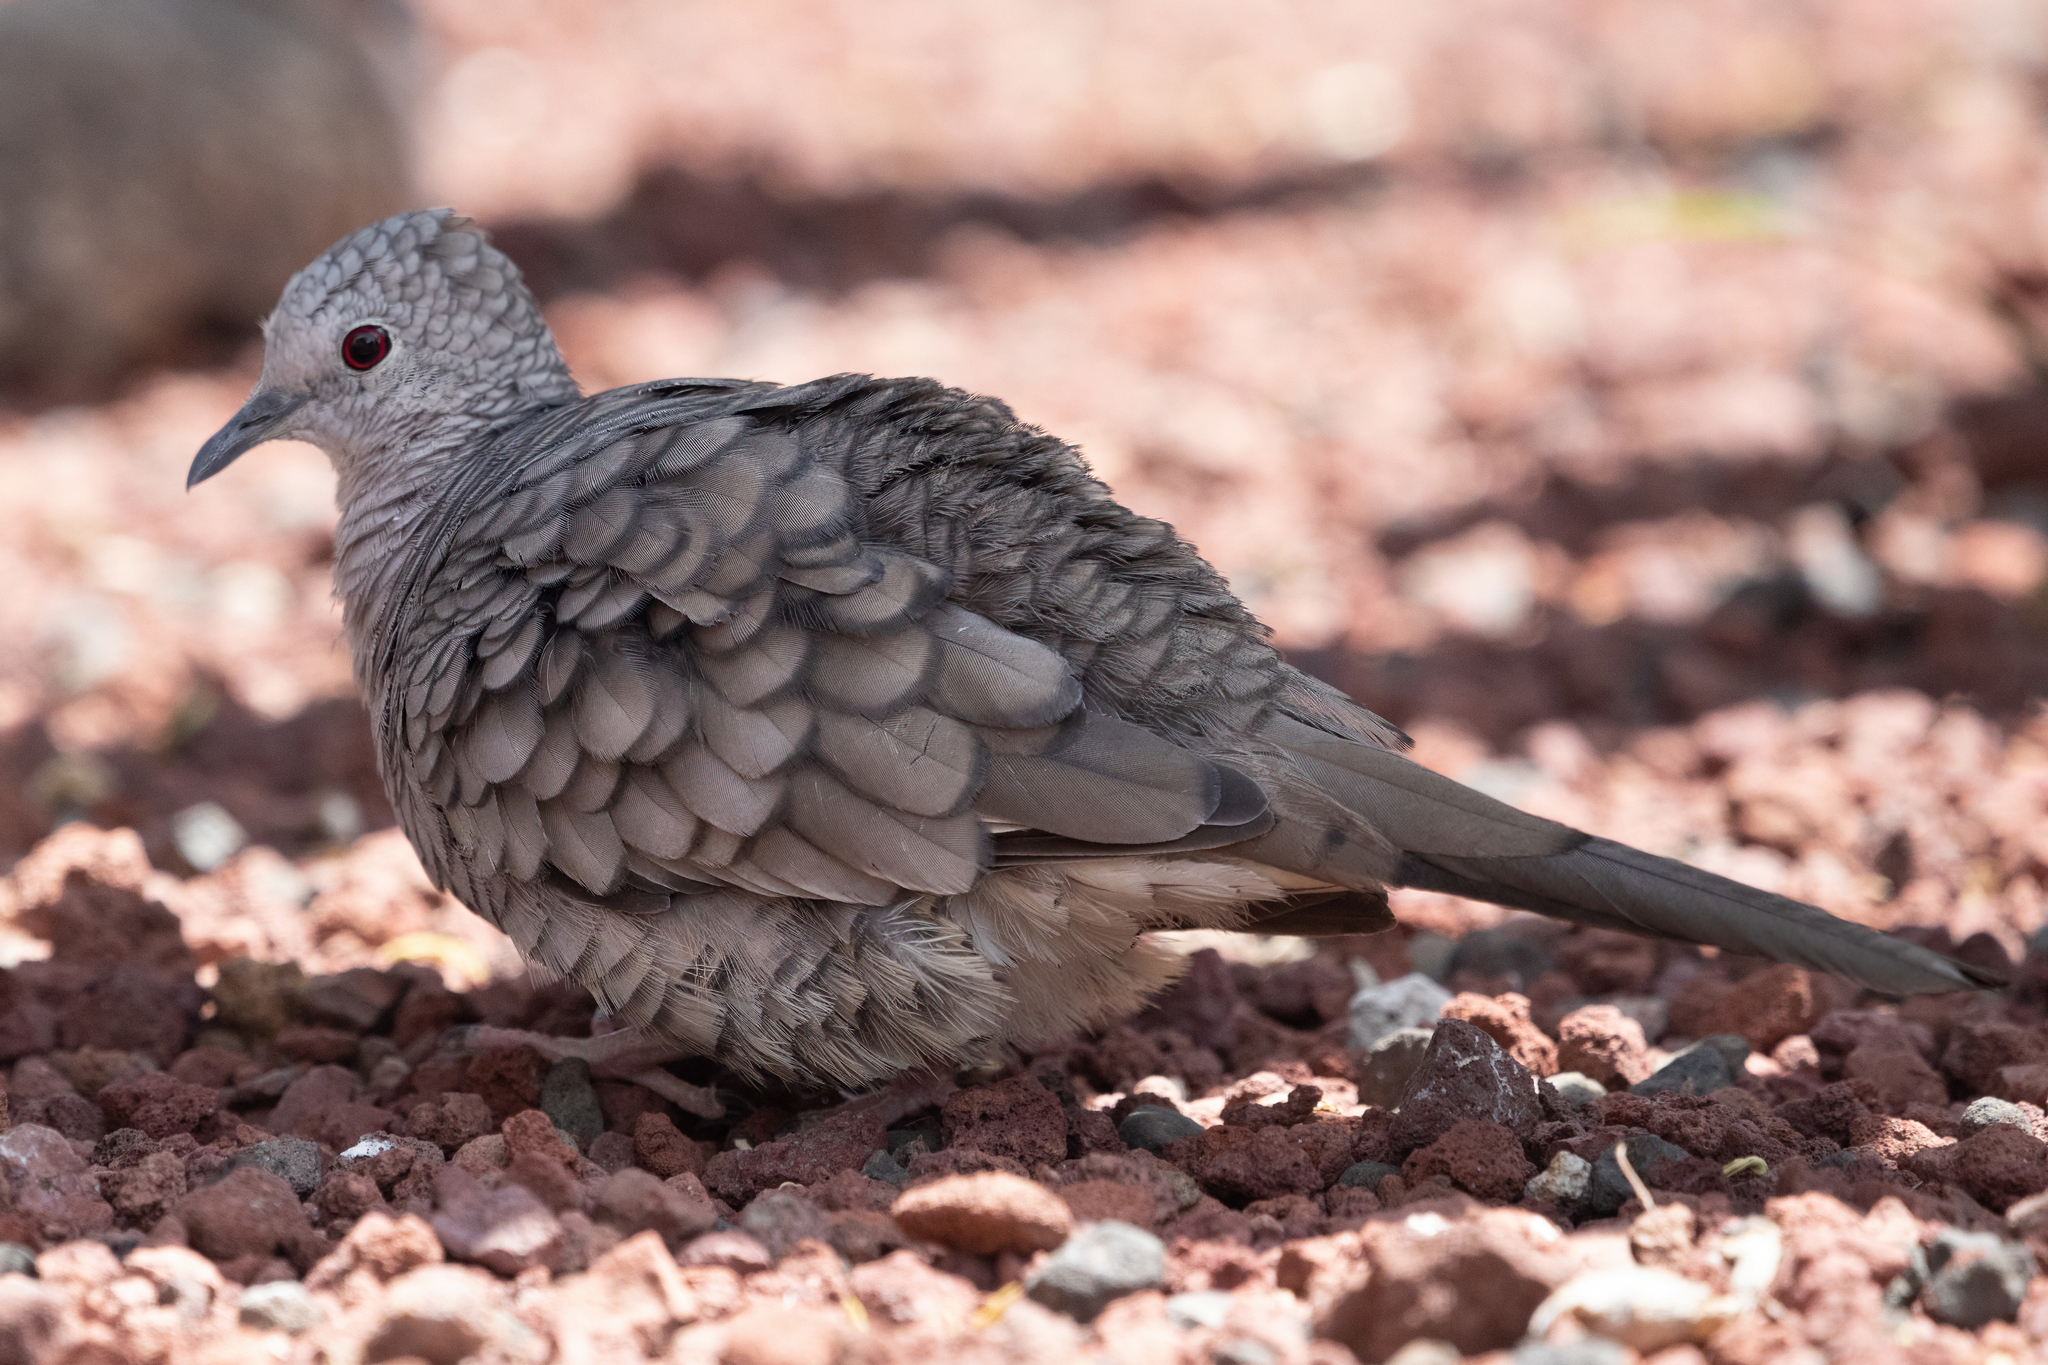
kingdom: Animalia
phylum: Chordata
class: Aves
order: Columbiformes
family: Columbidae
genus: Columbina
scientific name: Columbina inca
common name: Inca dove
